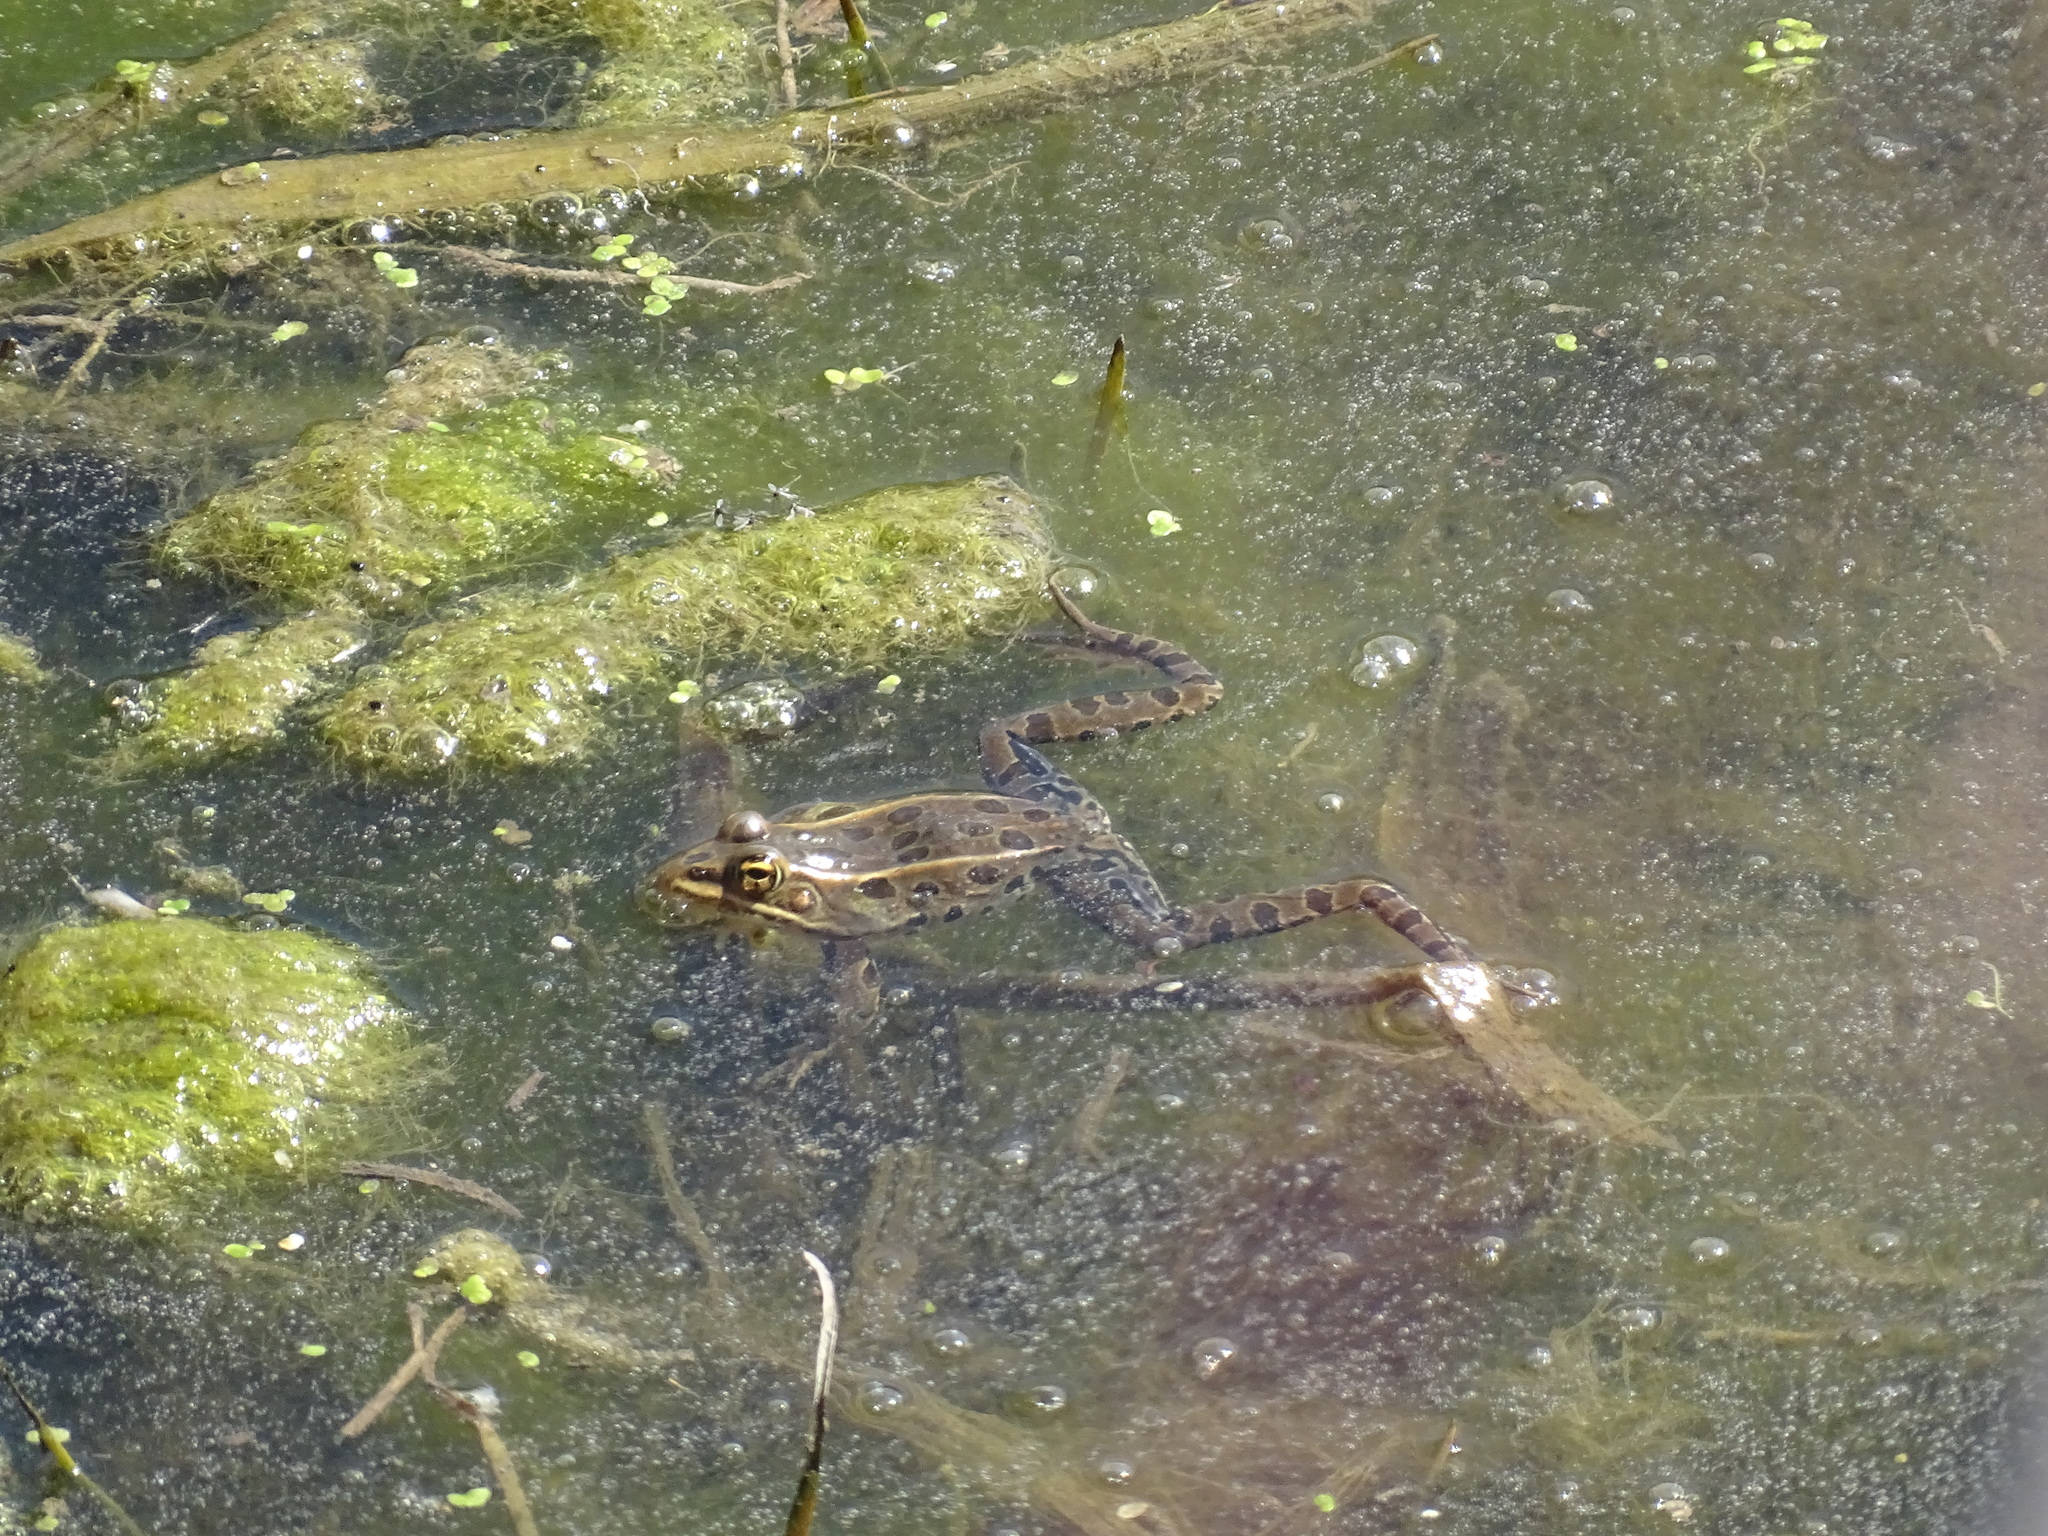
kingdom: Animalia
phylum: Chordata
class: Amphibia
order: Anura
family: Ranidae
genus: Lithobates
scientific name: Lithobates pipiens
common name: Northern leopard frog
